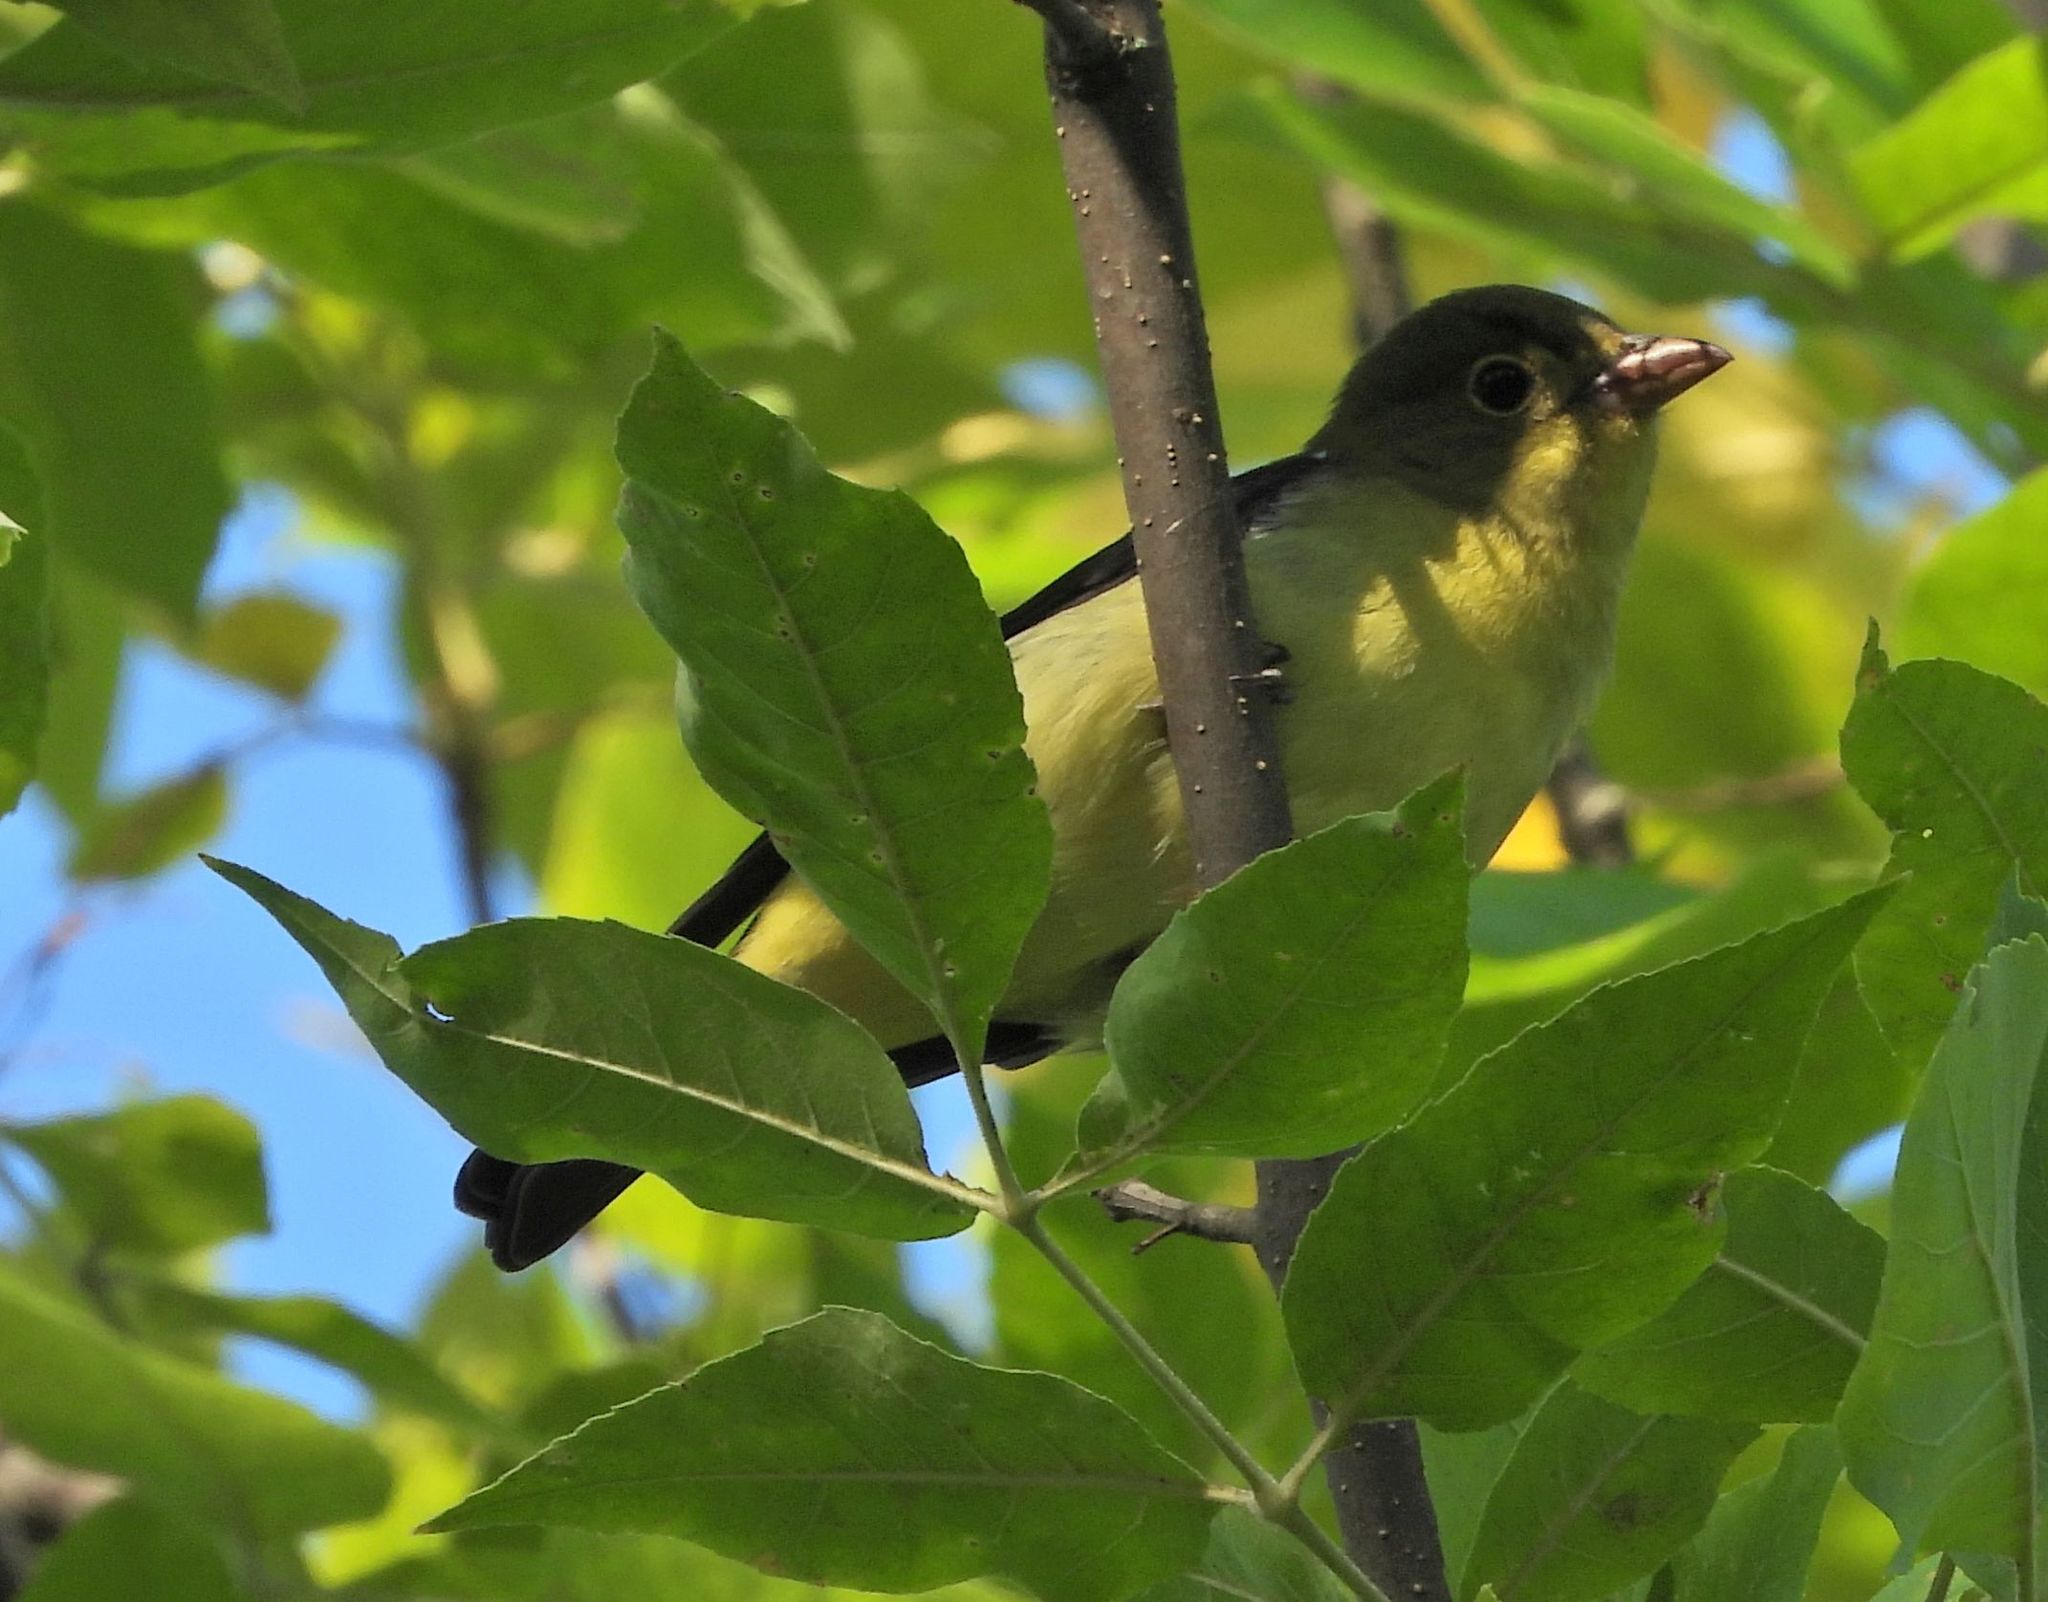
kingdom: Animalia
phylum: Chordata
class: Aves
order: Passeriformes
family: Cardinalidae
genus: Piranga
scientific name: Piranga olivacea
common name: Scarlet tanager
